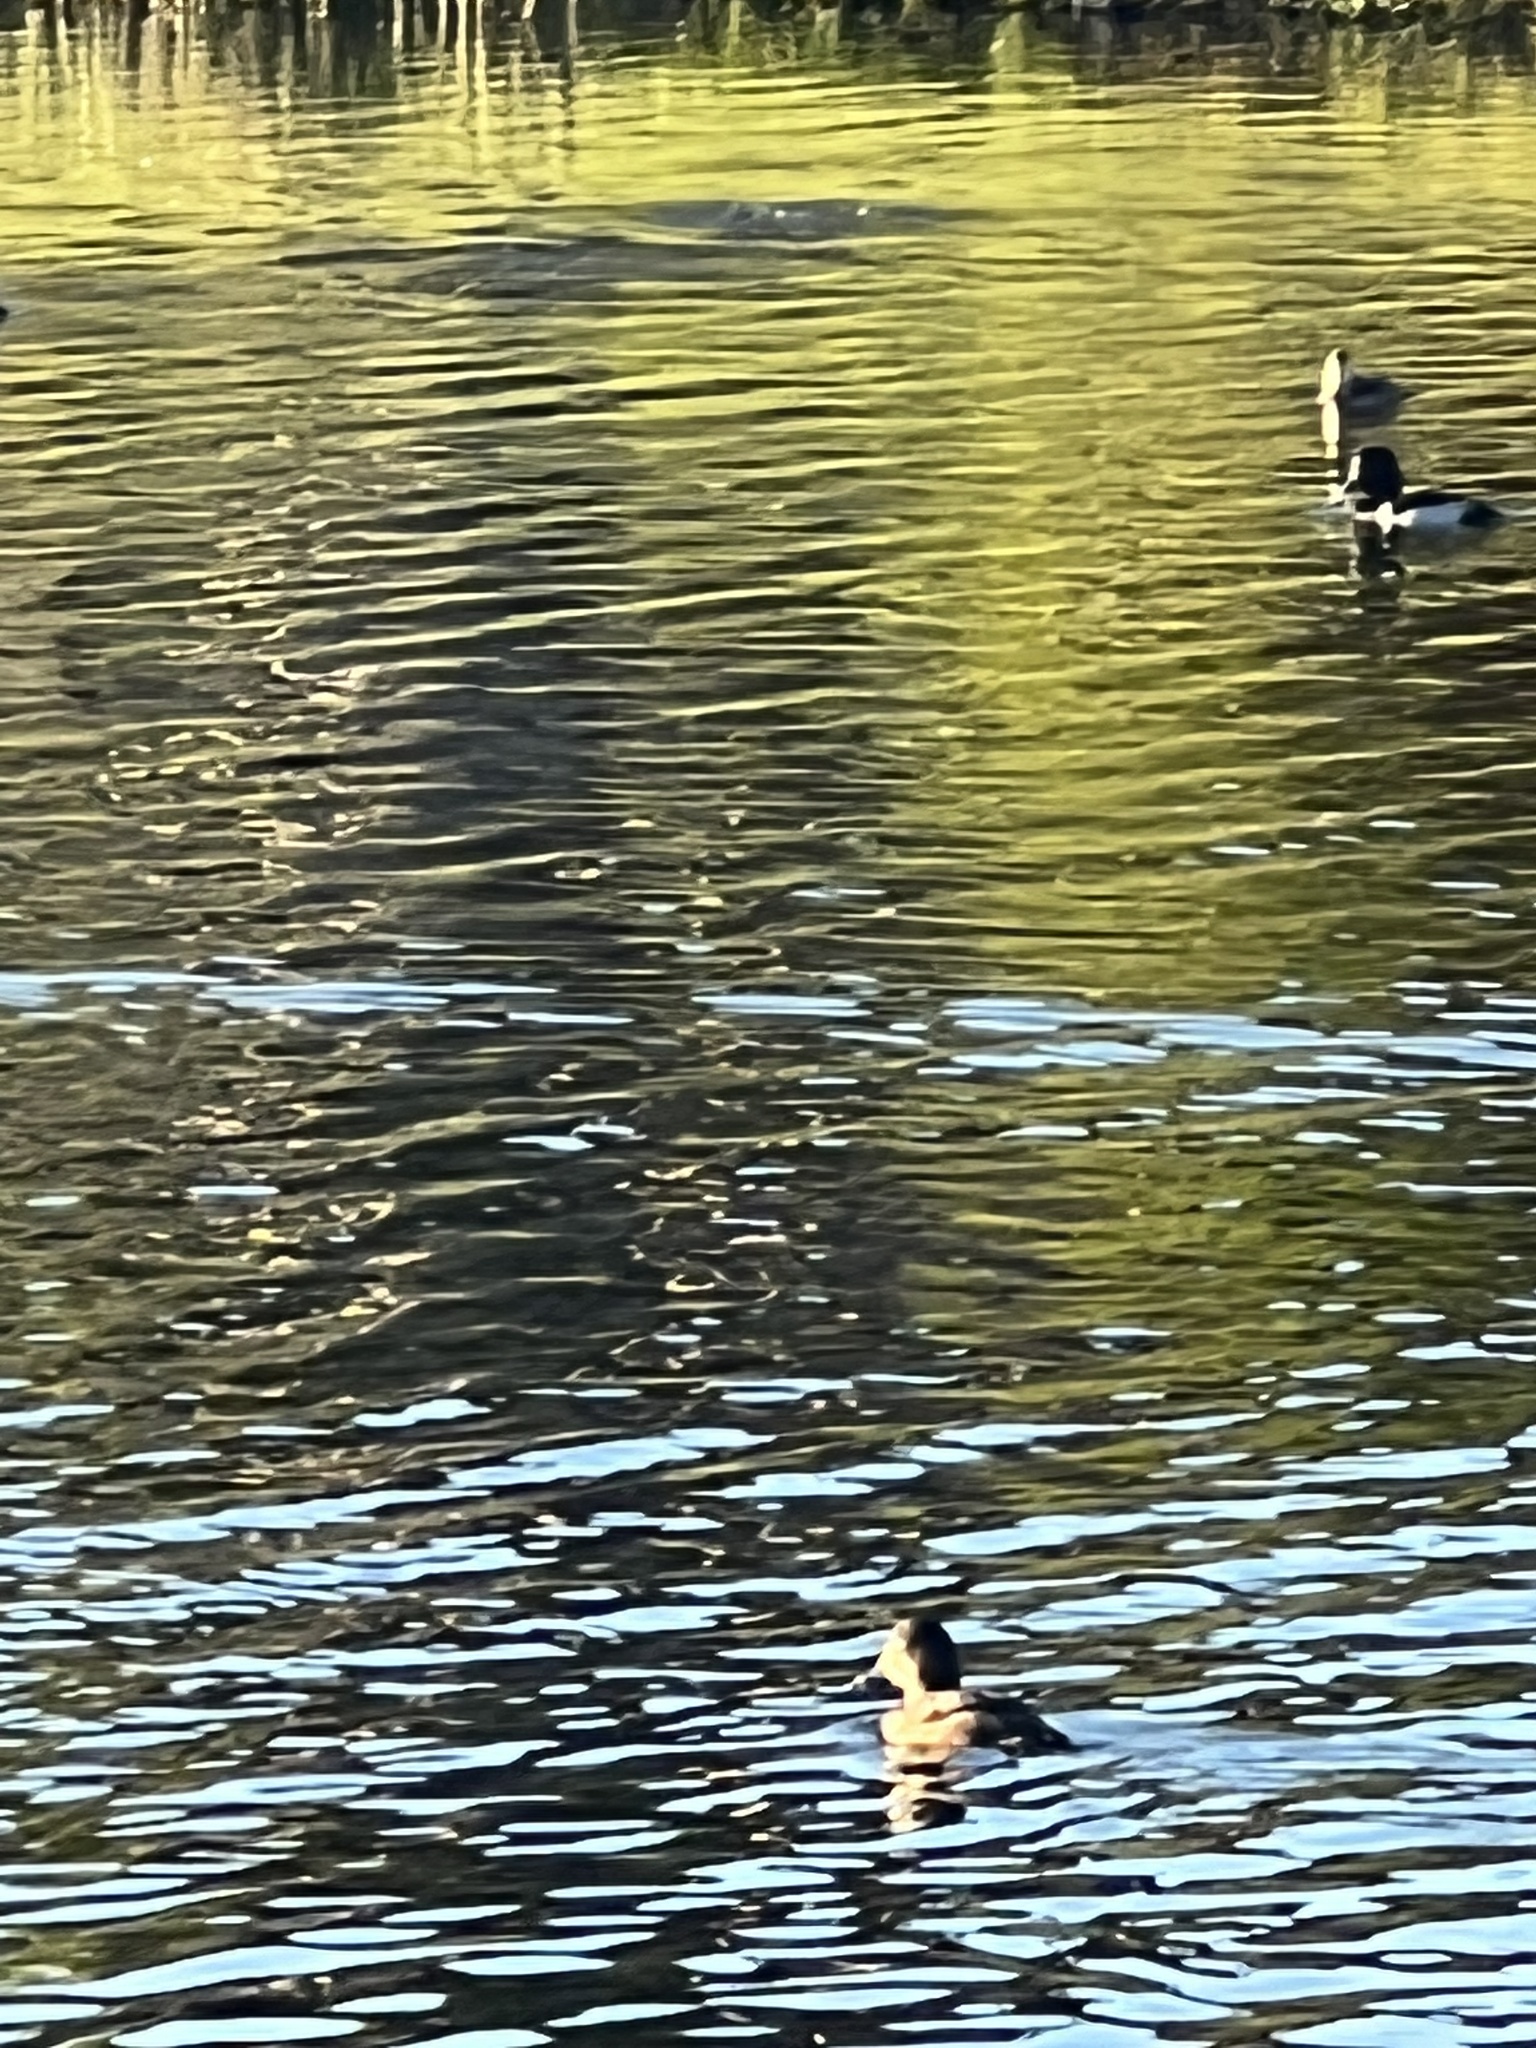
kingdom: Animalia
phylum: Chordata
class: Aves
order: Anseriformes
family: Anatidae
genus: Aythya
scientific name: Aythya collaris
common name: Ring-necked duck
